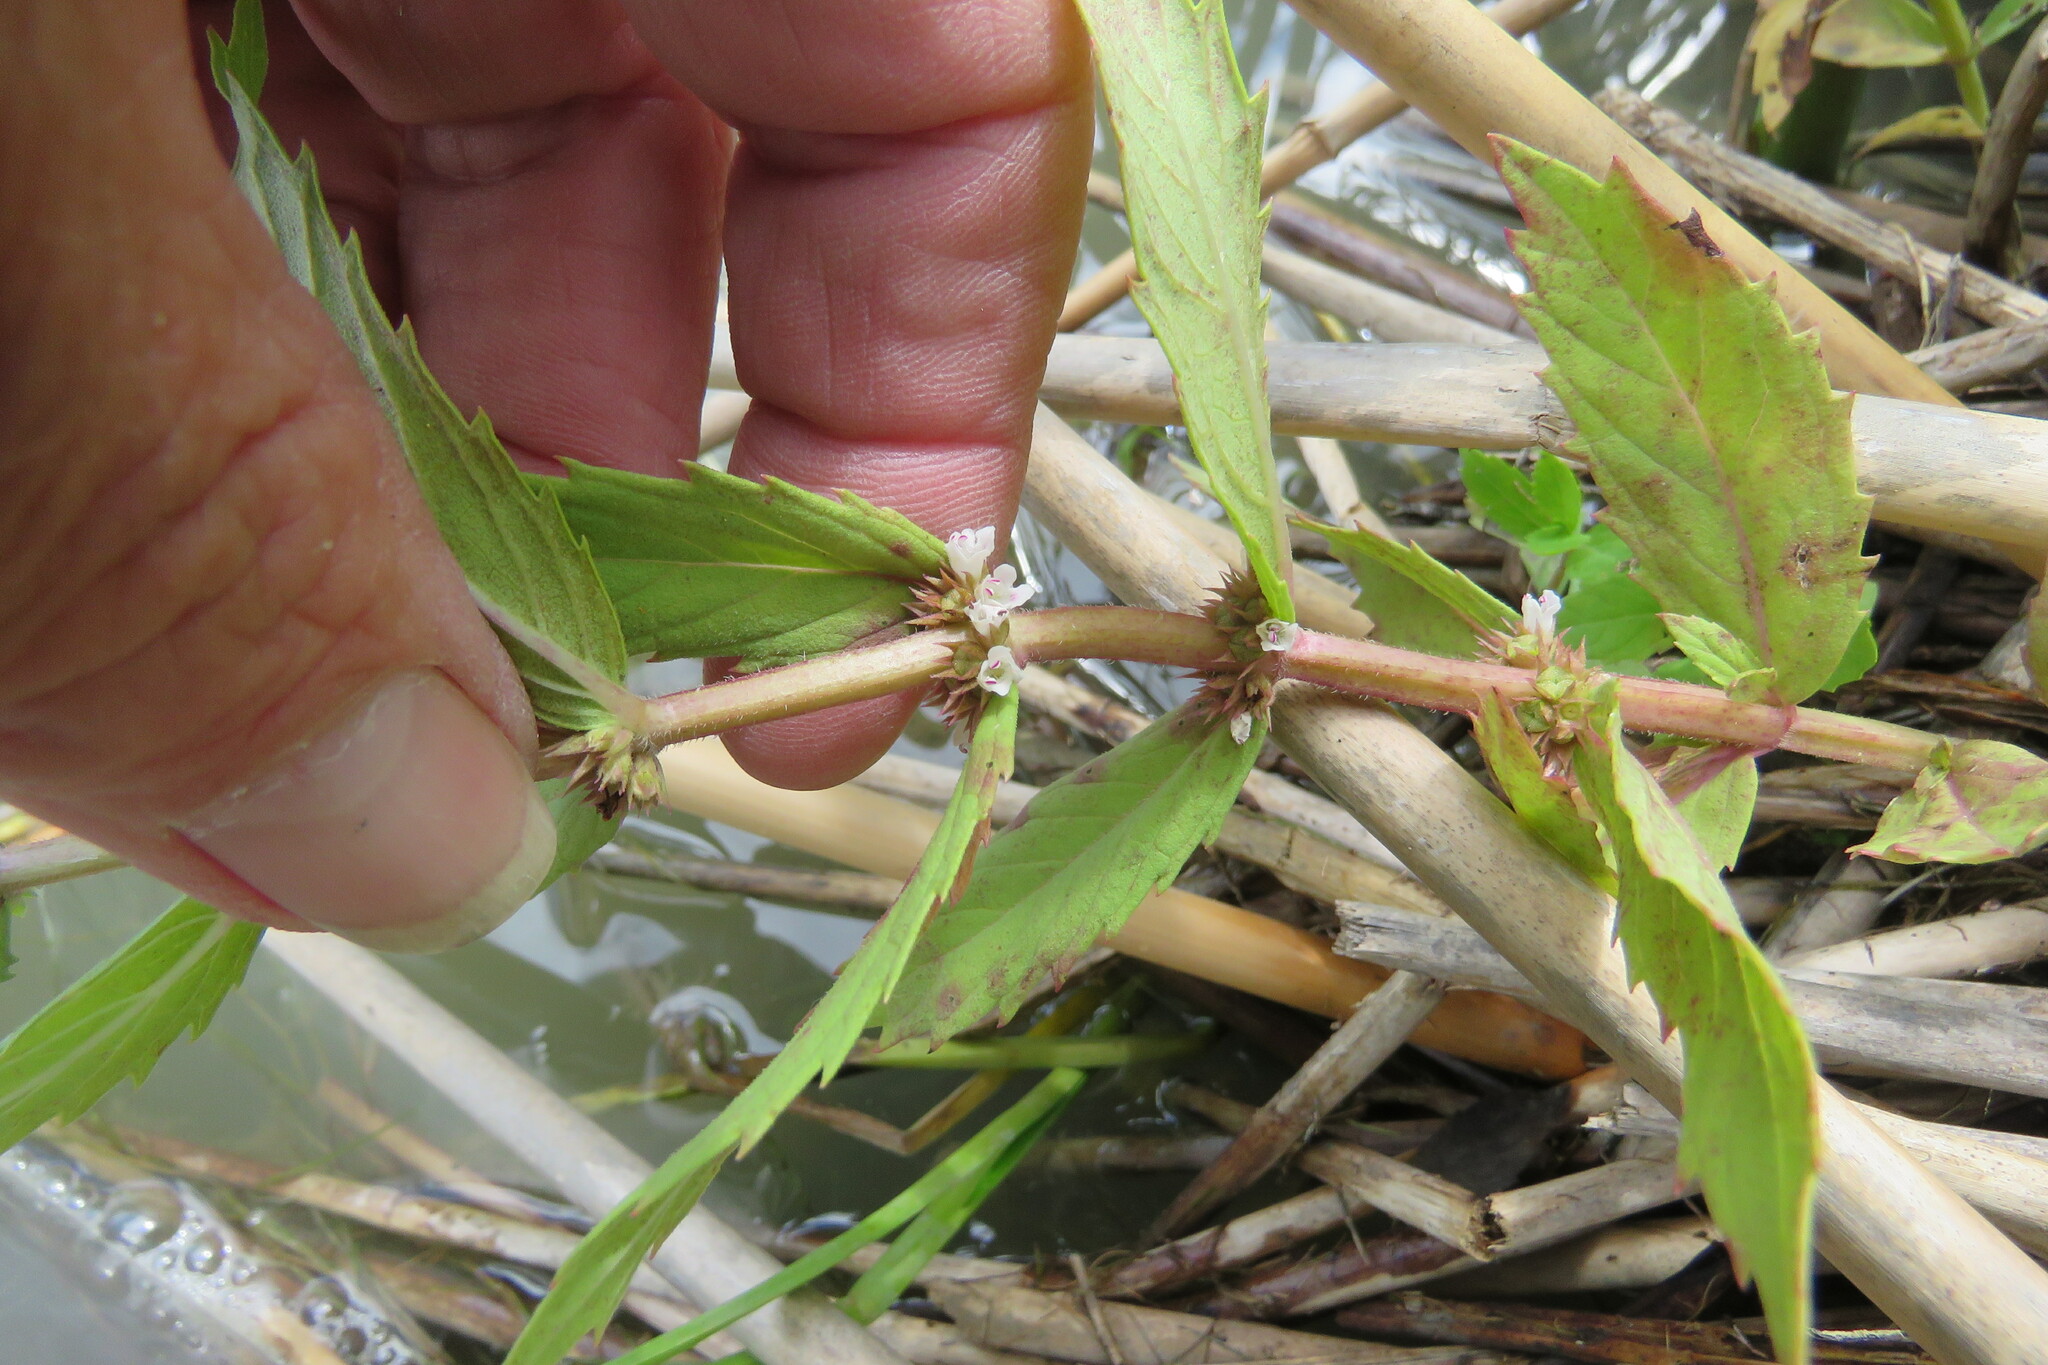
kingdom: Plantae
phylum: Tracheophyta
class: Magnoliopsida
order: Lamiales
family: Lamiaceae
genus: Lycopus
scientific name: Lycopus asper
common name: Rough water-horehound
